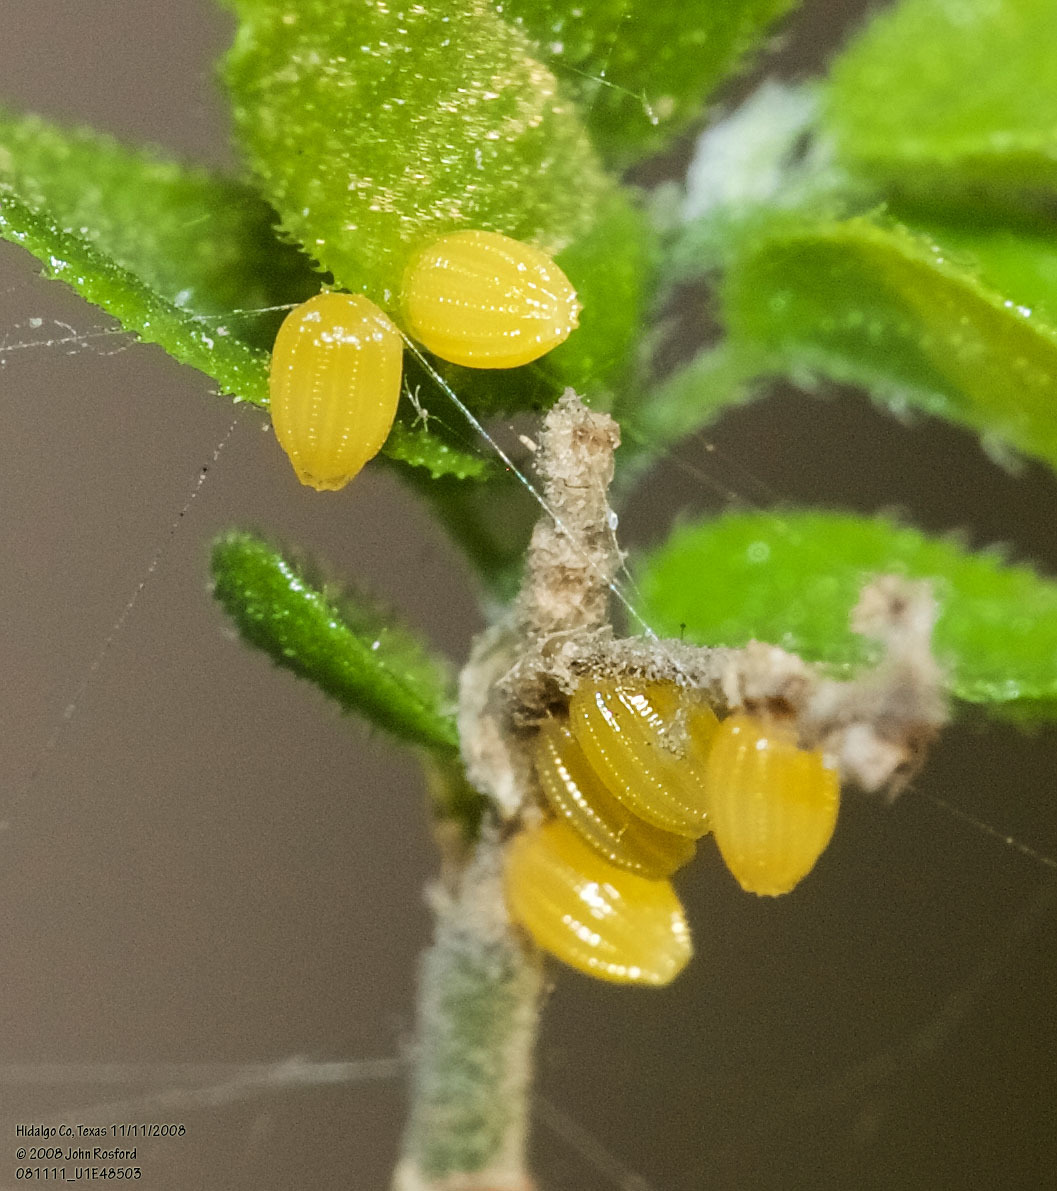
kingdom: Animalia
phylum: Arthropoda
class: Insecta
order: Lepidoptera
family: Nymphalidae
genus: Dione
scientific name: Dione moneta
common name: Mexican silverspot
